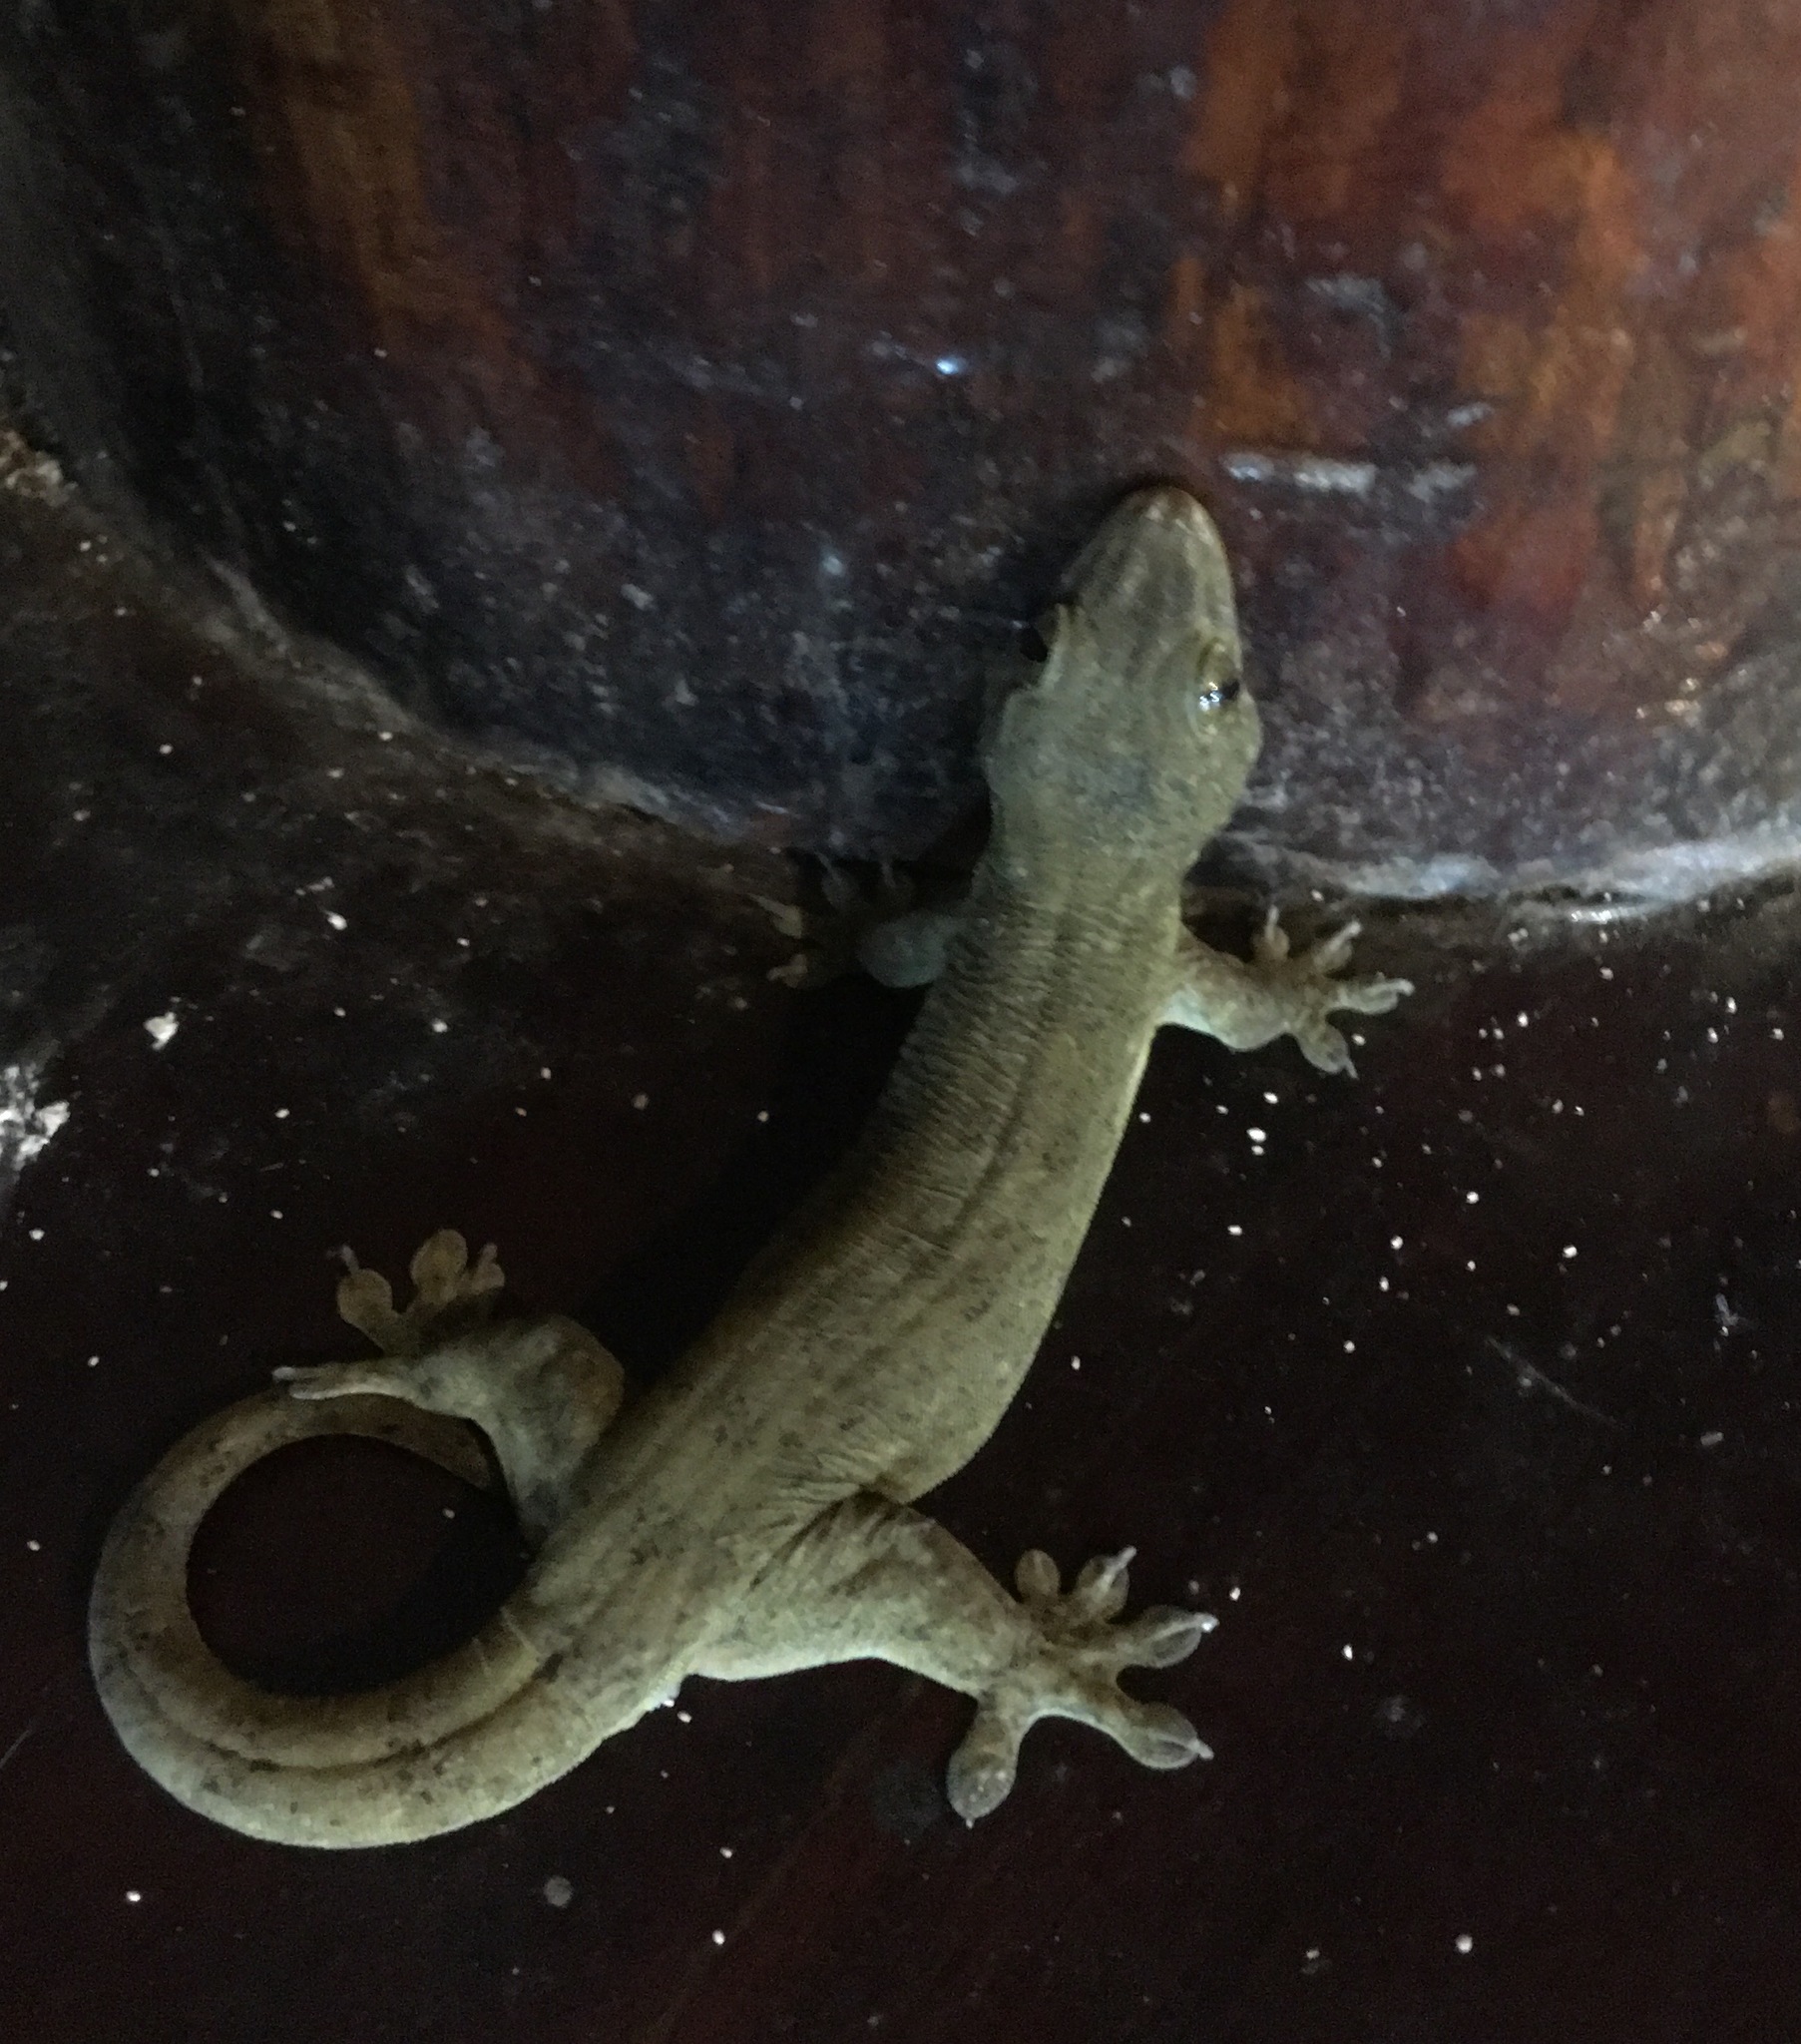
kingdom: Animalia
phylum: Chordata
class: Squamata
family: Gekkonidae
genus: Gehyra
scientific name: Gehyra oceanica
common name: Pacific dtella
